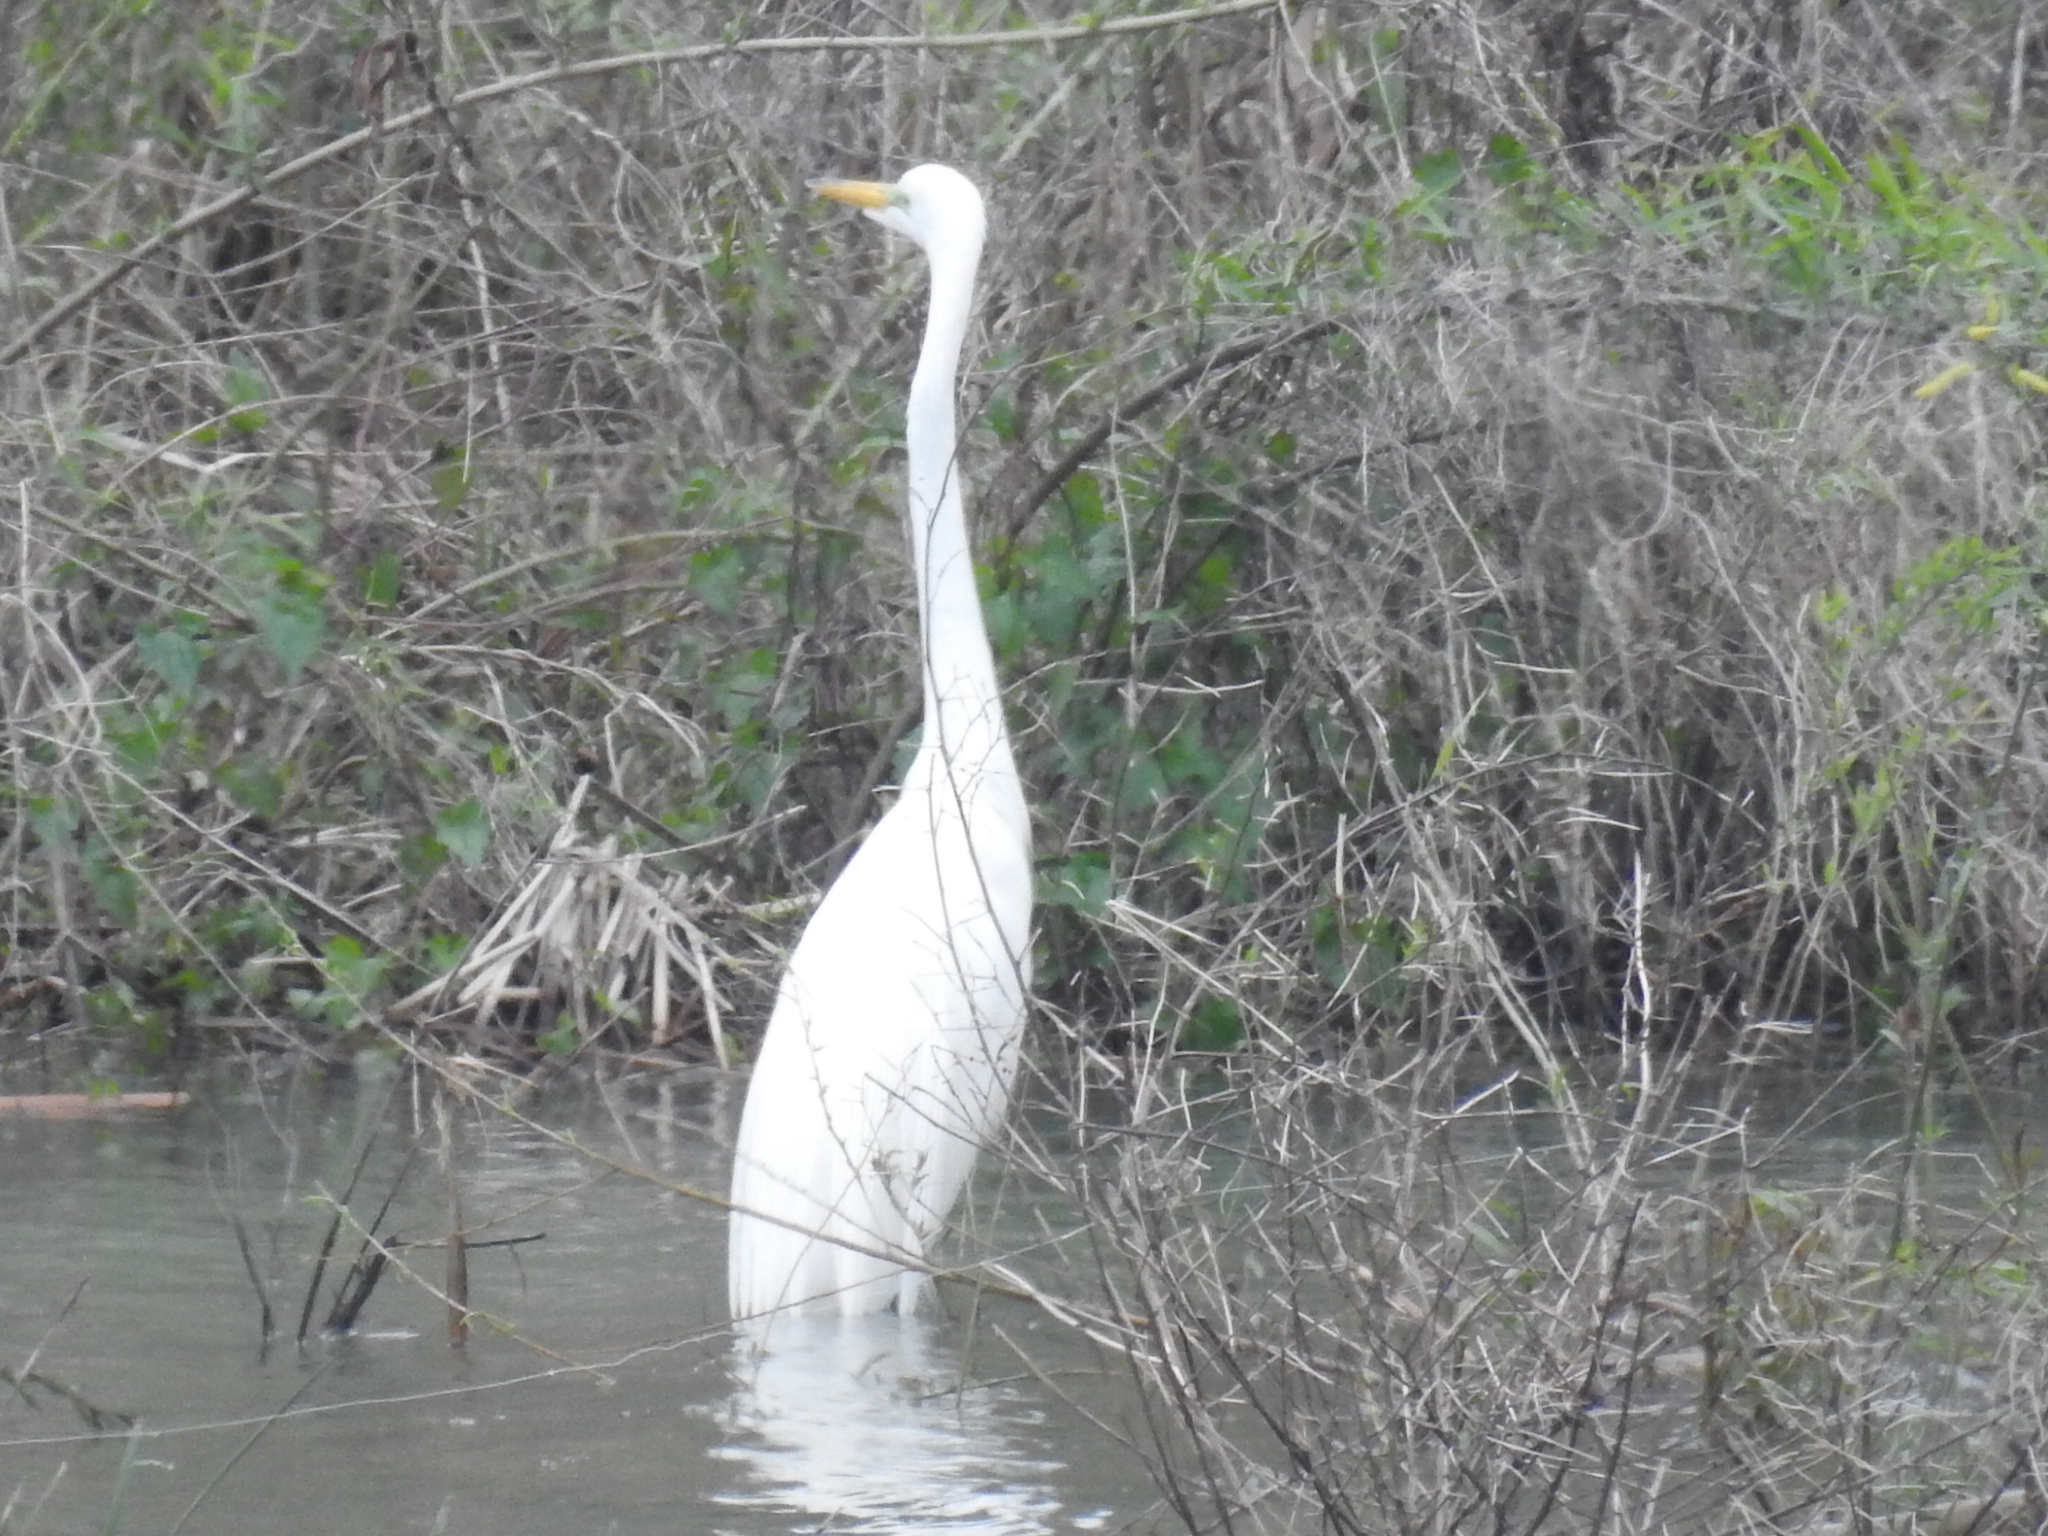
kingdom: Animalia
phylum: Chordata
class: Aves
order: Pelecaniformes
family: Ardeidae
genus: Ardea
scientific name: Ardea alba
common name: Great egret
